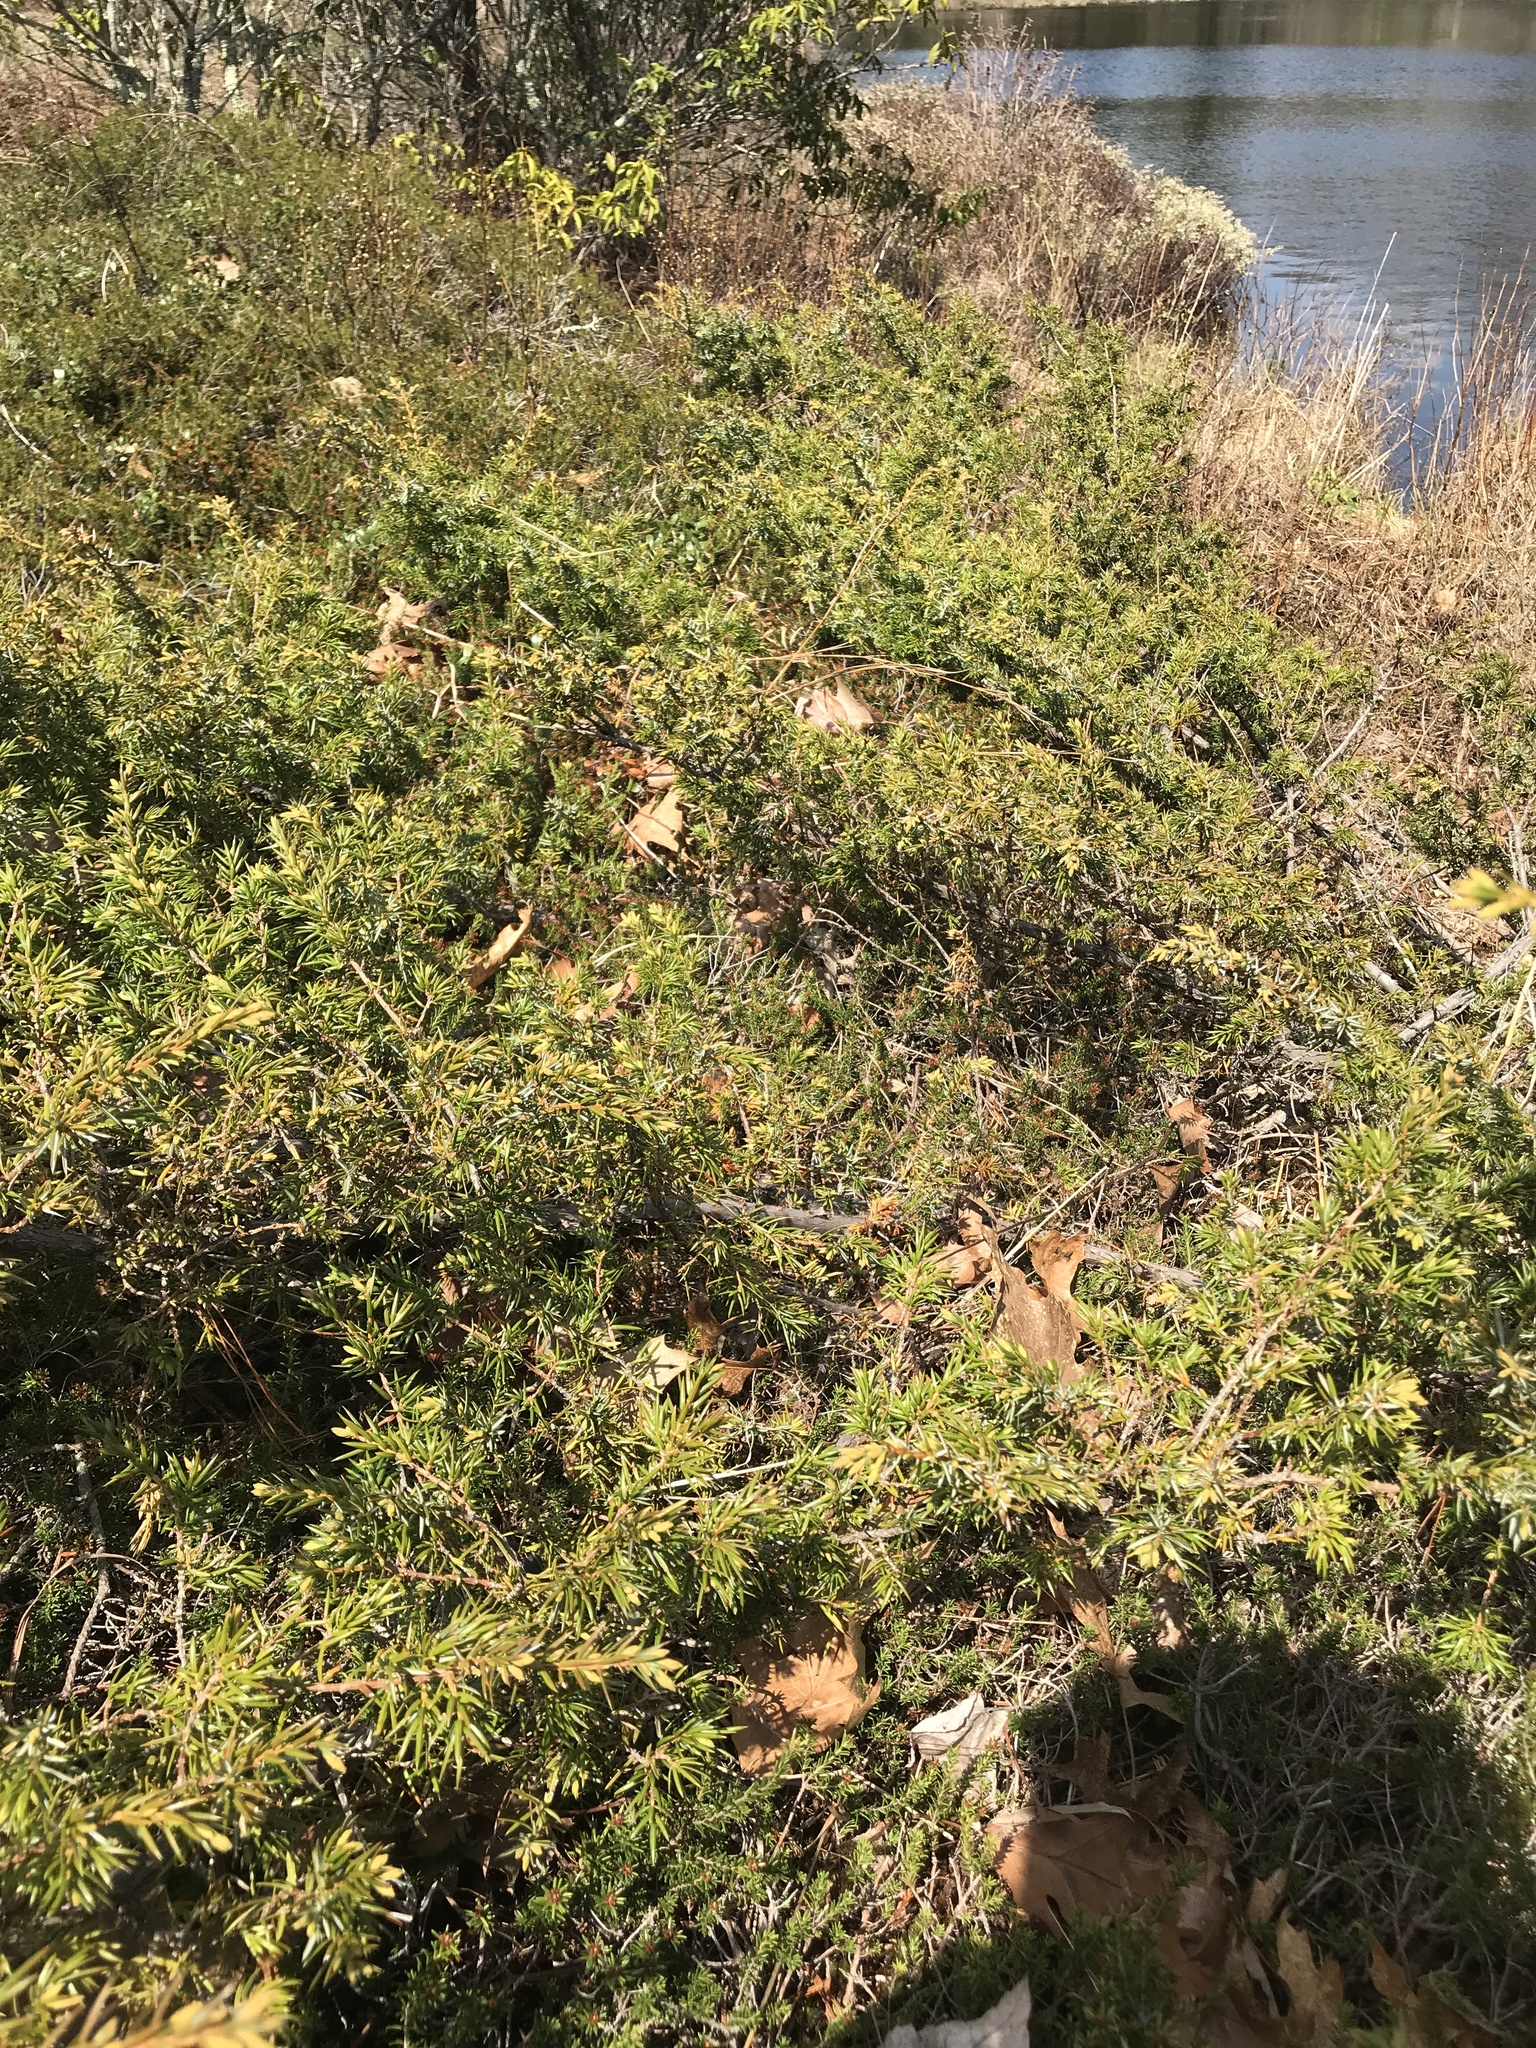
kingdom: Plantae
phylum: Tracheophyta
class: Pinopsida
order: Pinales
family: Cupressaceae
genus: Juniperus
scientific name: Juniperus communis
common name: Common juniper
